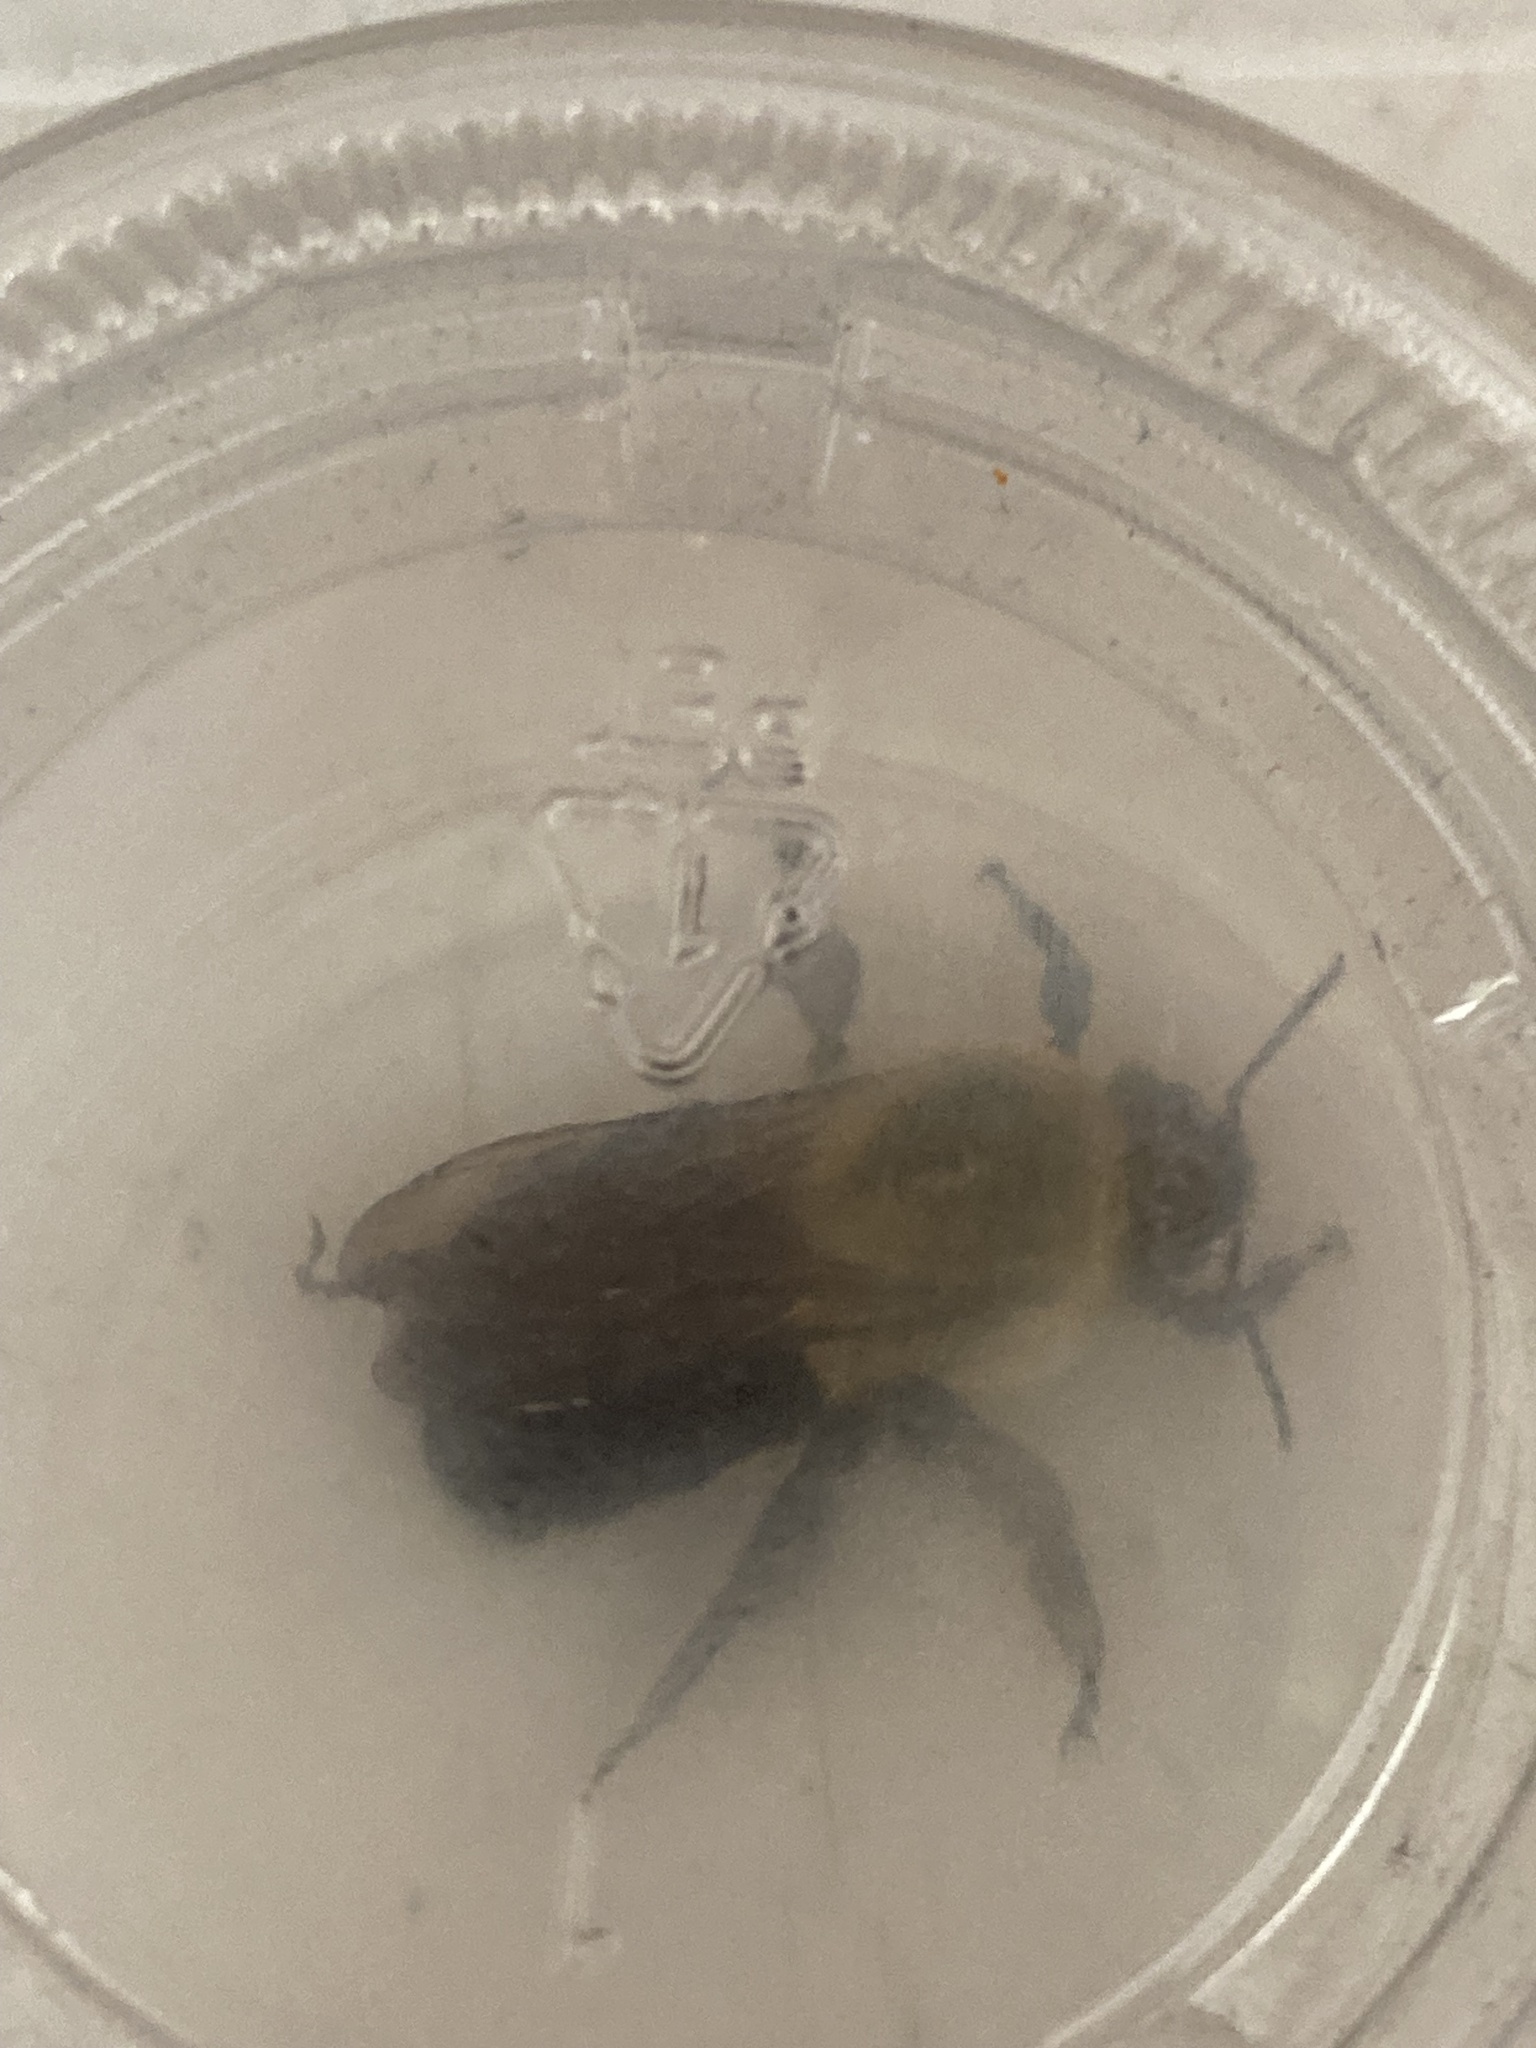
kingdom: Animalia
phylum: Arthropoda
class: Insecta
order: Hymenoptera
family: Apidae
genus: Bombus
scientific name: Bombus impatiens
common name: Common eastern bumble bee
